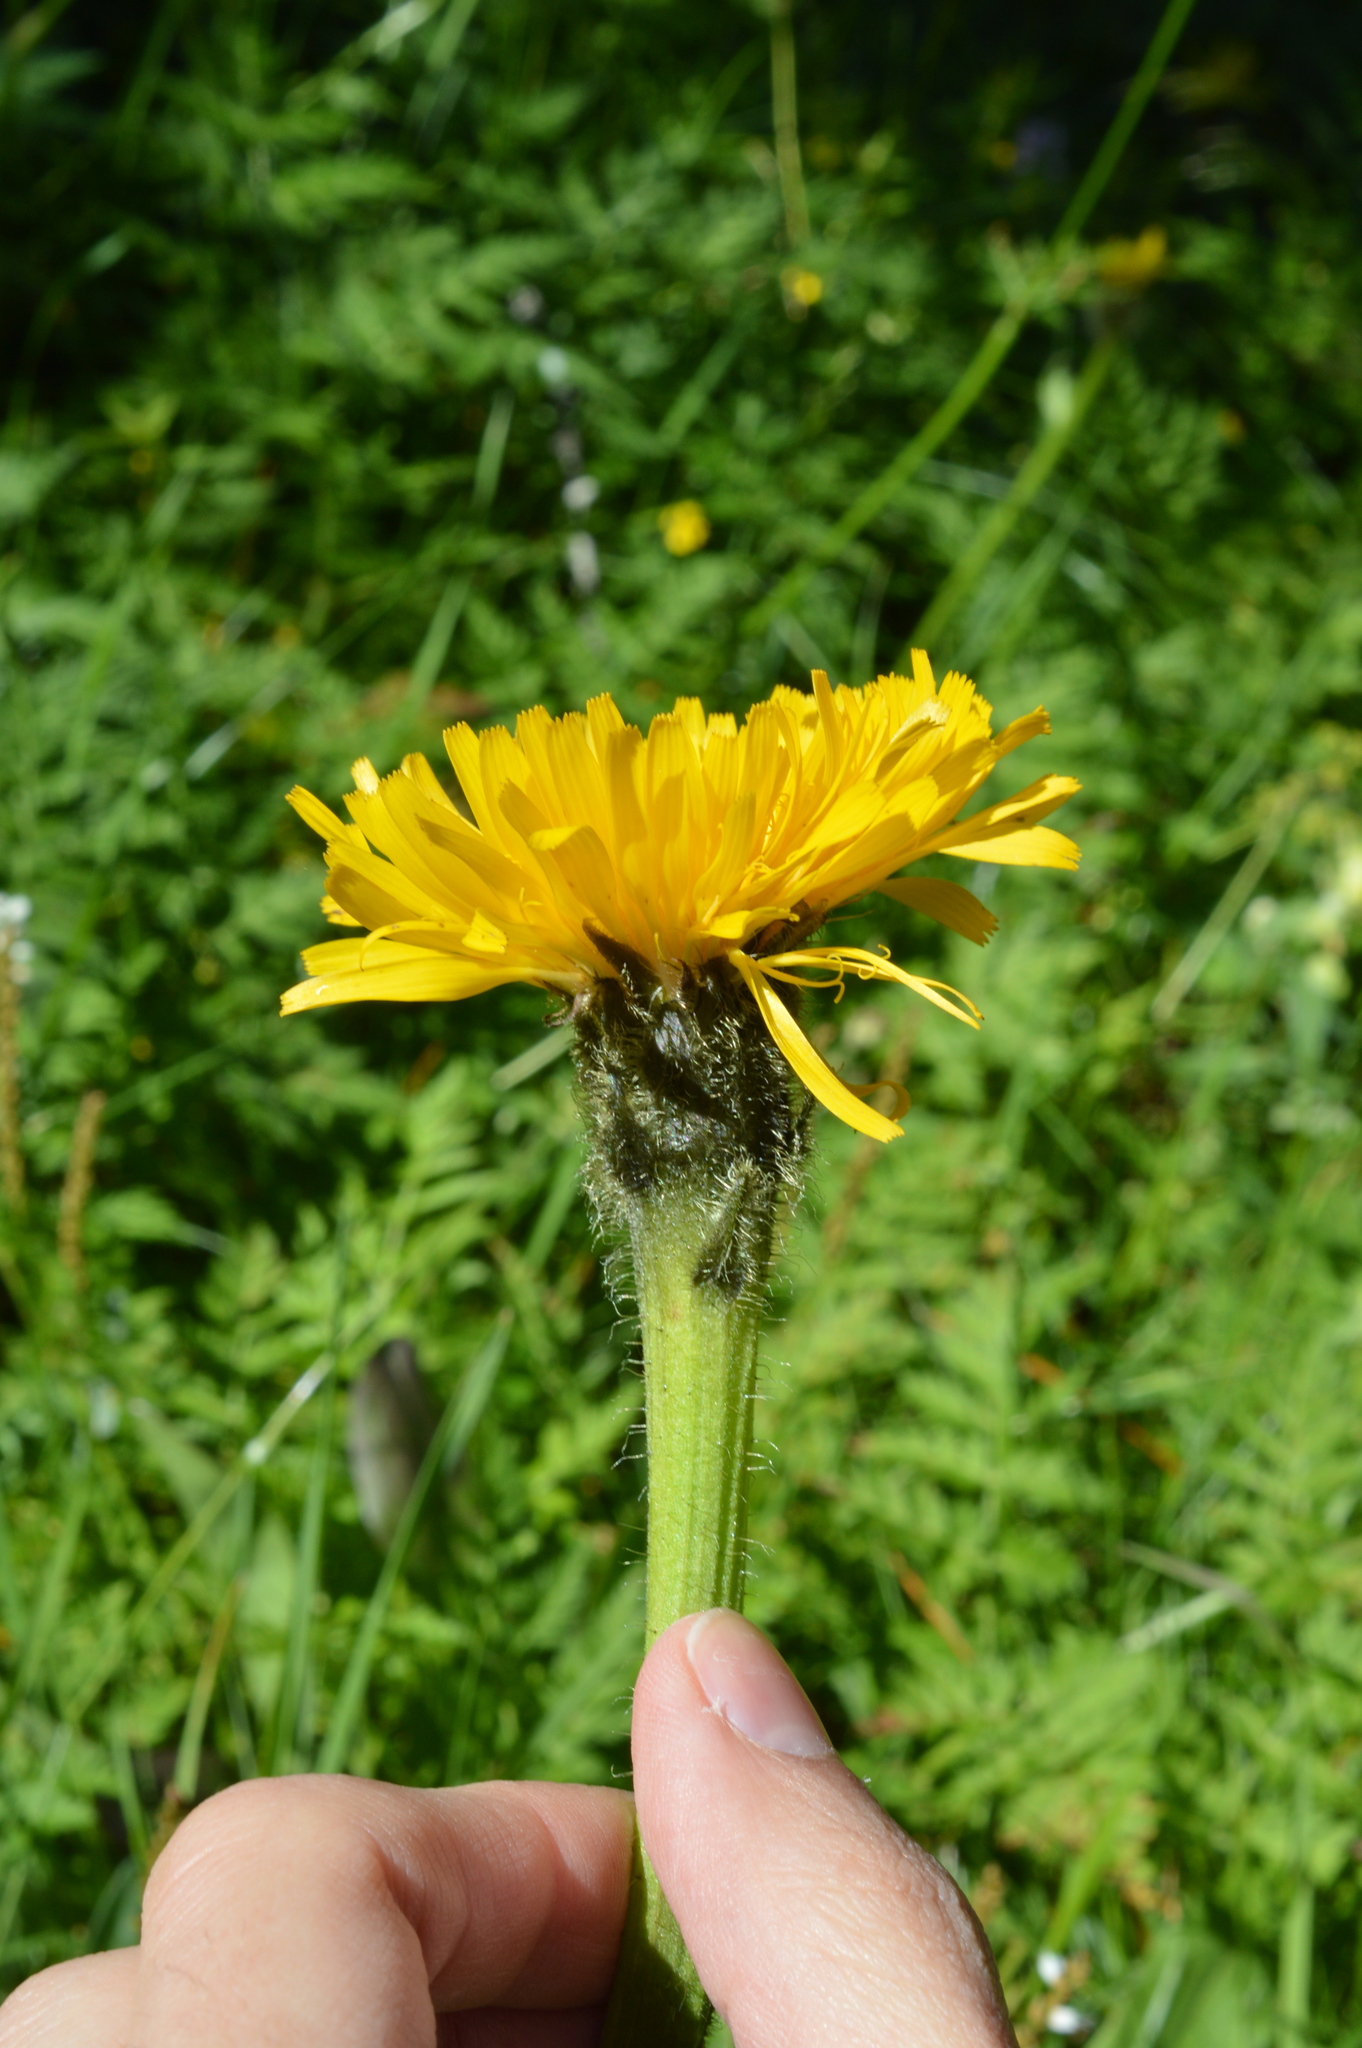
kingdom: Plantae
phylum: Tracheophyta
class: Magnoliopsida
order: Asterales
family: Asteraceae
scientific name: Asteraceae
